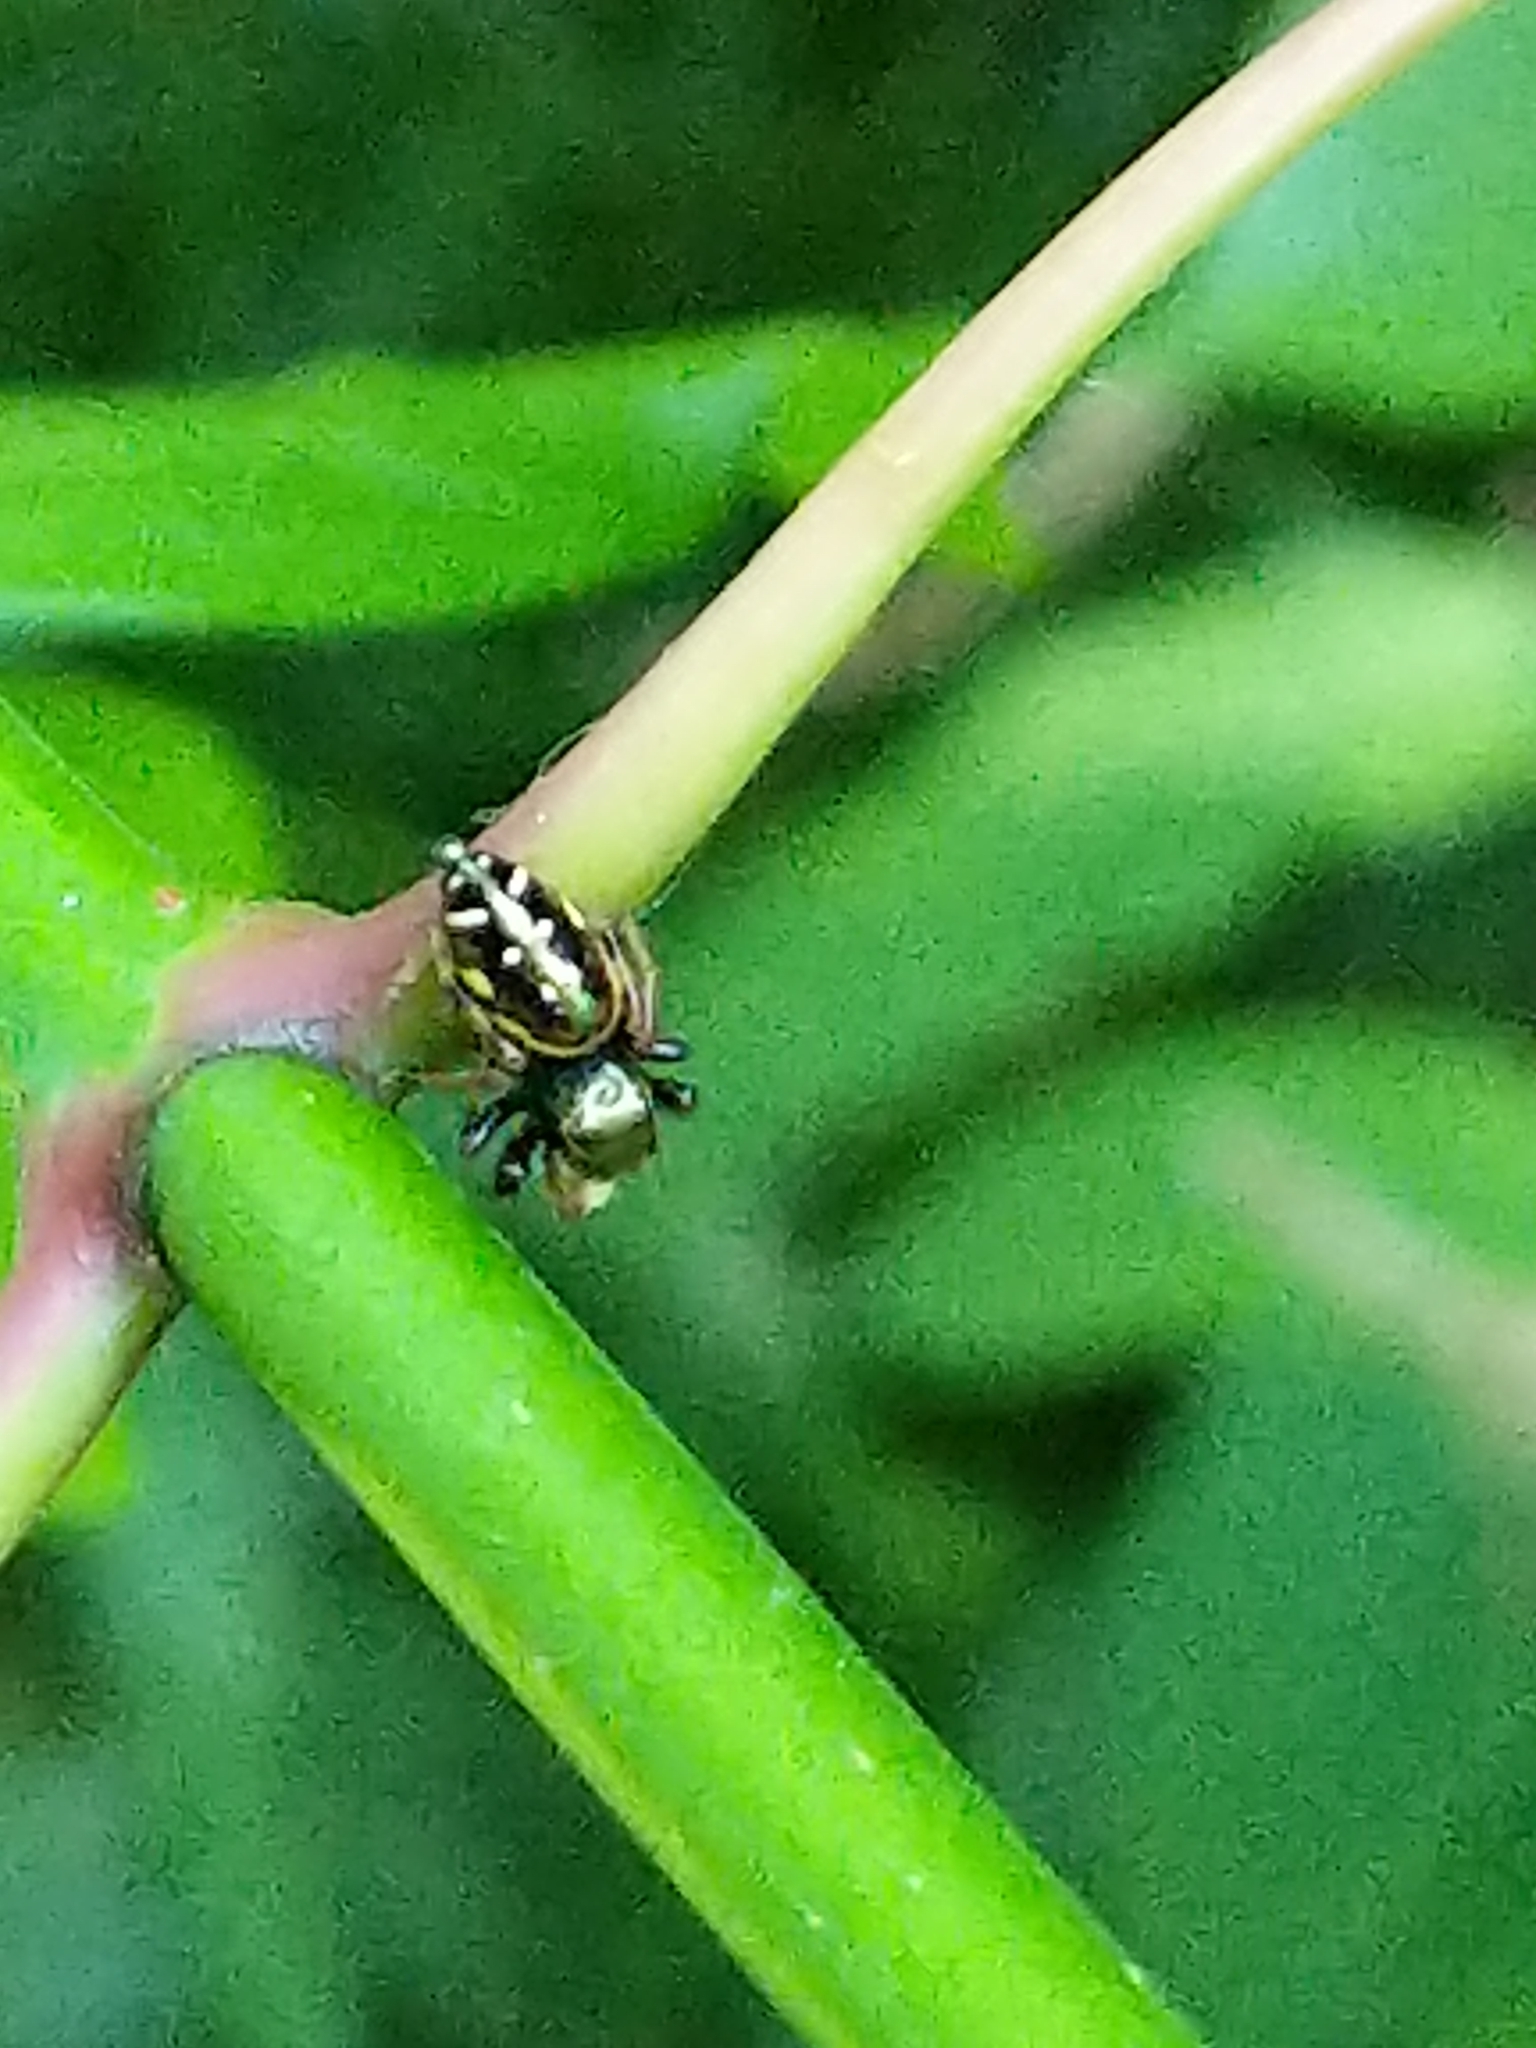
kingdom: Animalia
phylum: Arthropoda
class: Arachnida
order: Araneae
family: Salticidae
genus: Paraphidippus
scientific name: Paraphidippus aurantius
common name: Jumping spiders
